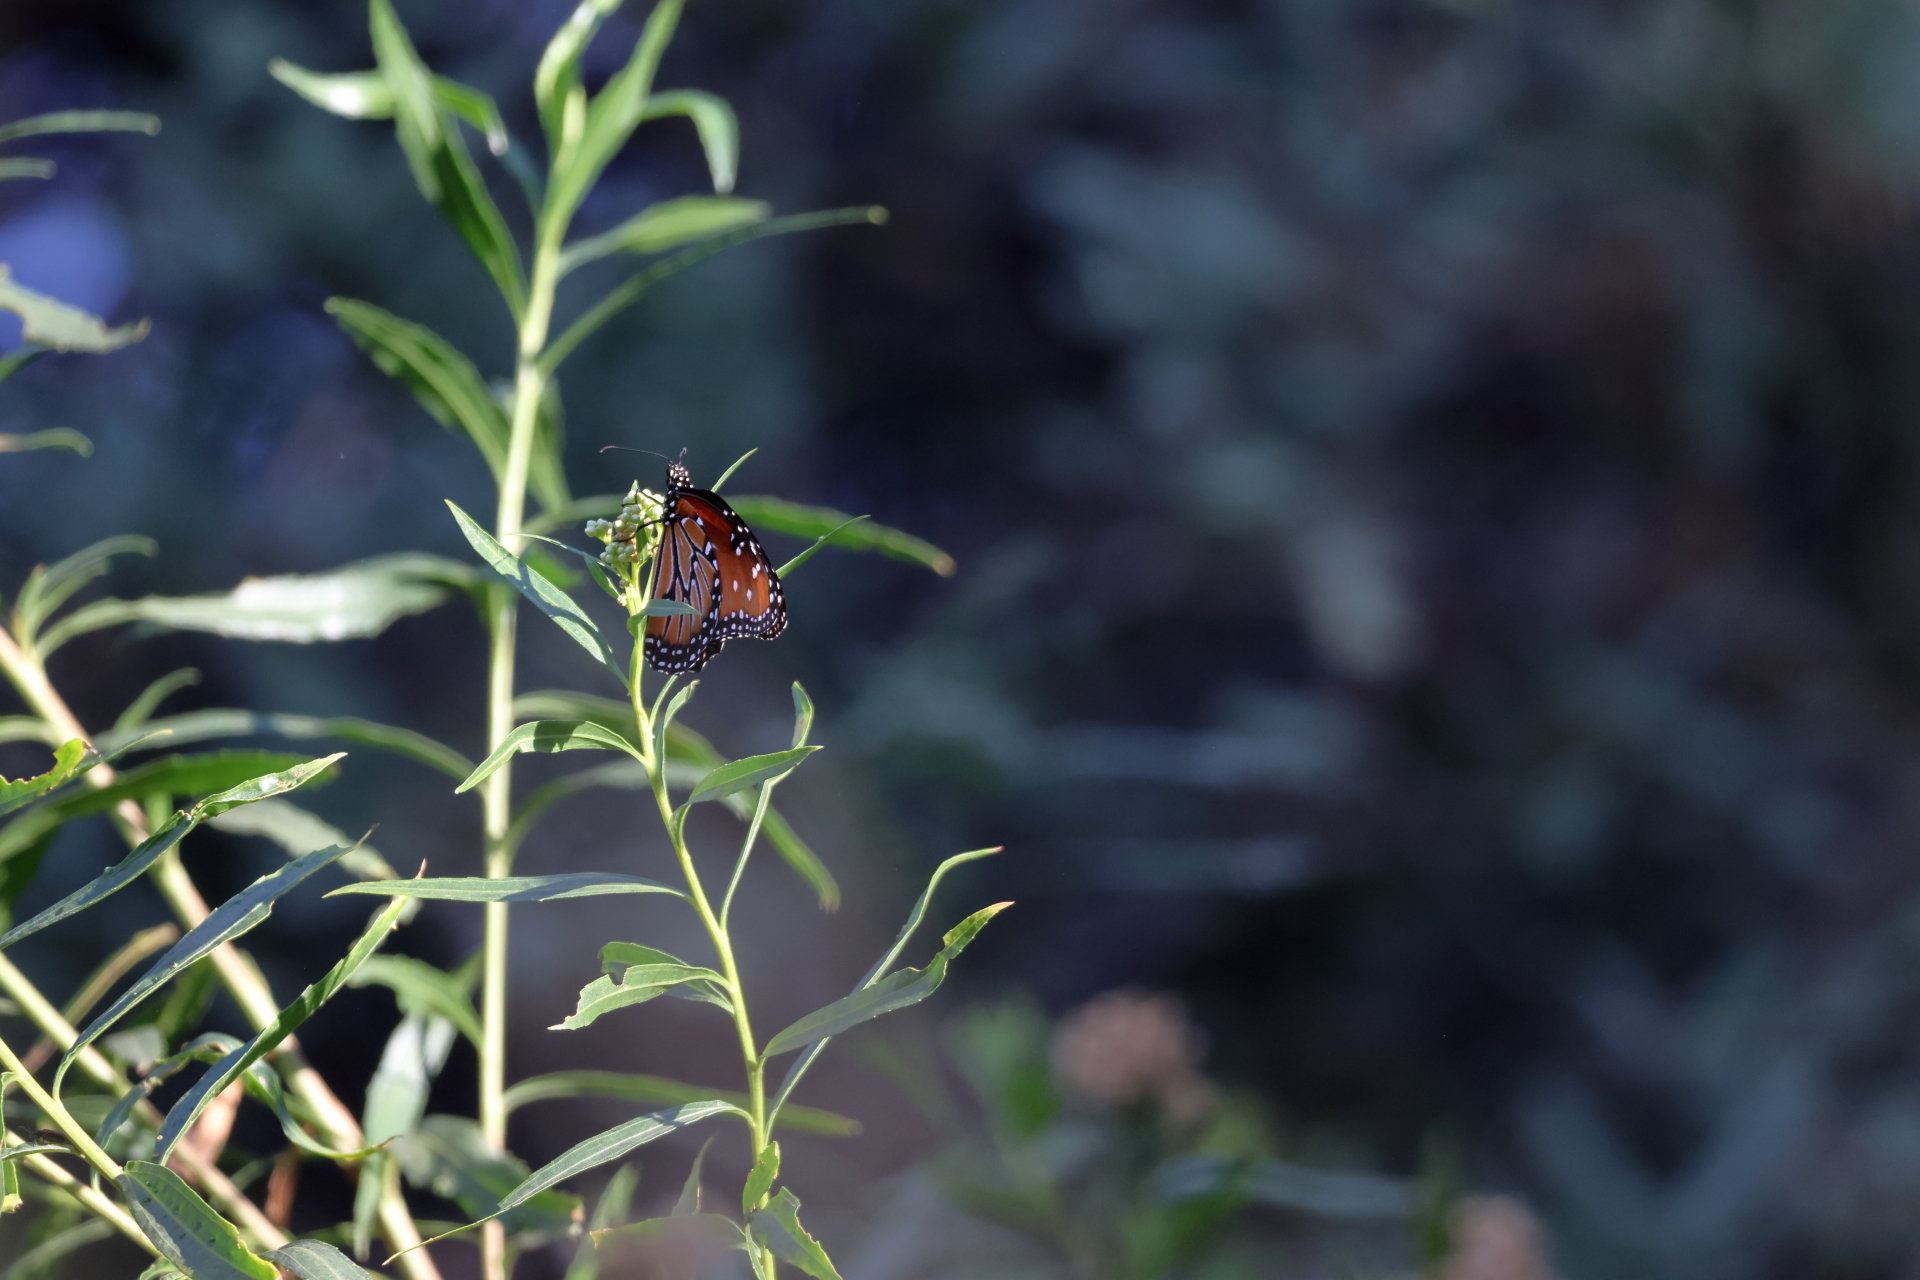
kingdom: Animalia
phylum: Arthropoda
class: Insecta
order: Lepidoptera
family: Nymphalidae
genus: Danaus
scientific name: Danaus gilippus
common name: Queen
